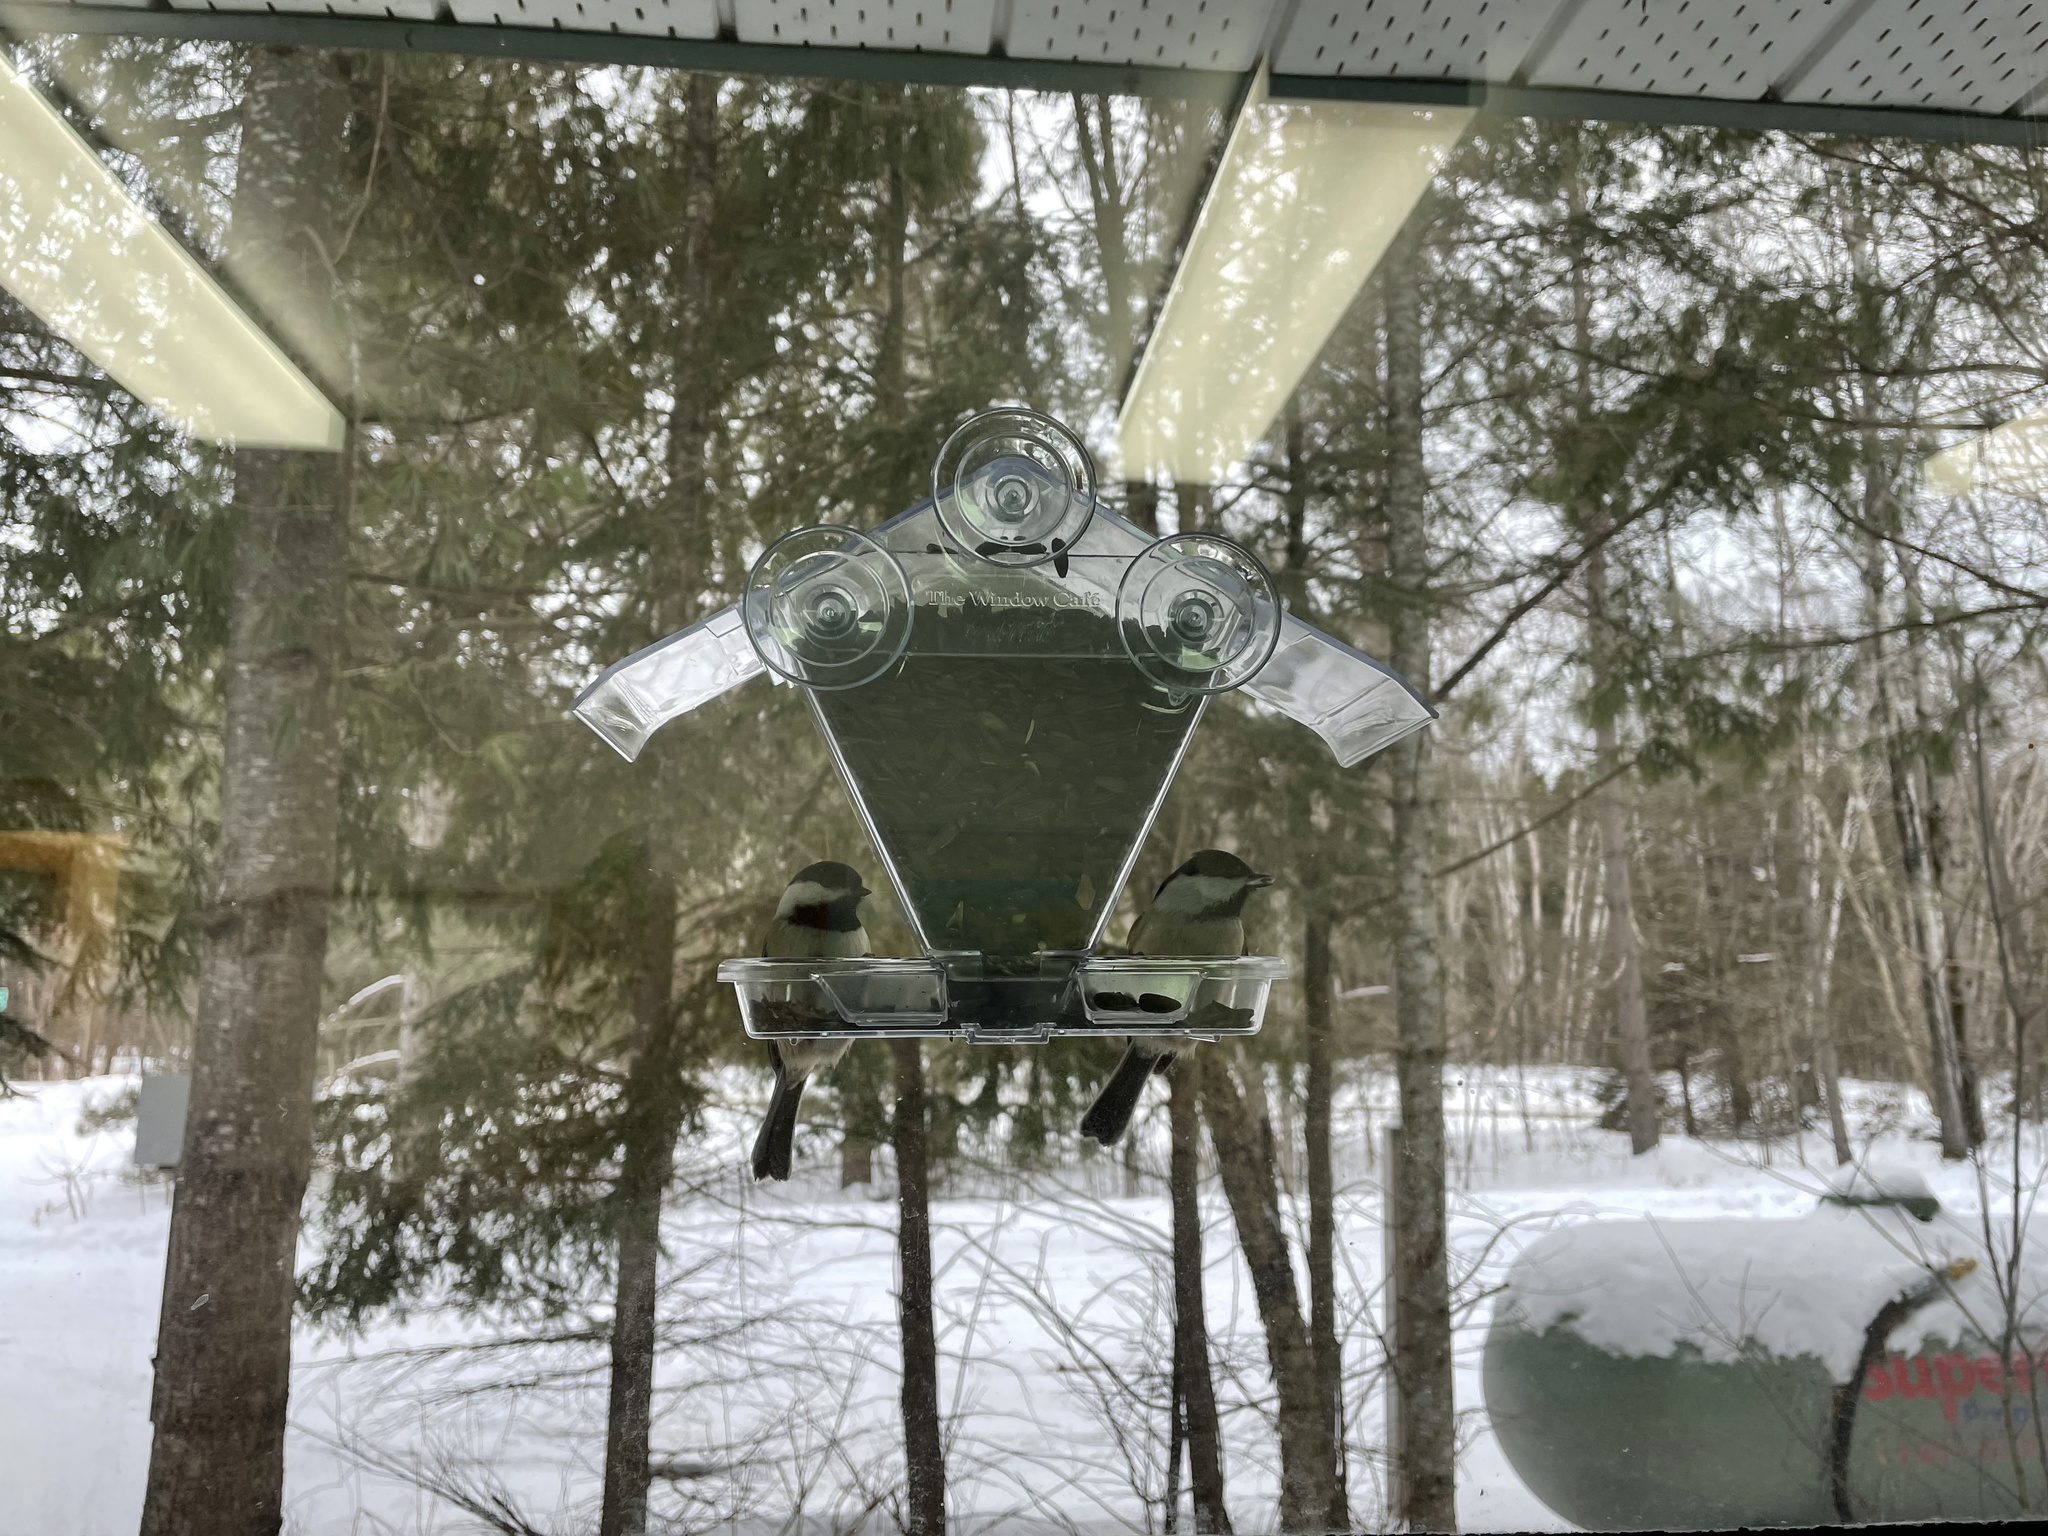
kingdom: Animalia
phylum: Chordata
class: Aves
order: Passeriformes
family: Paridae
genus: Poecile
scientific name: Poecile atricapillus
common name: Black-capped chickadee
